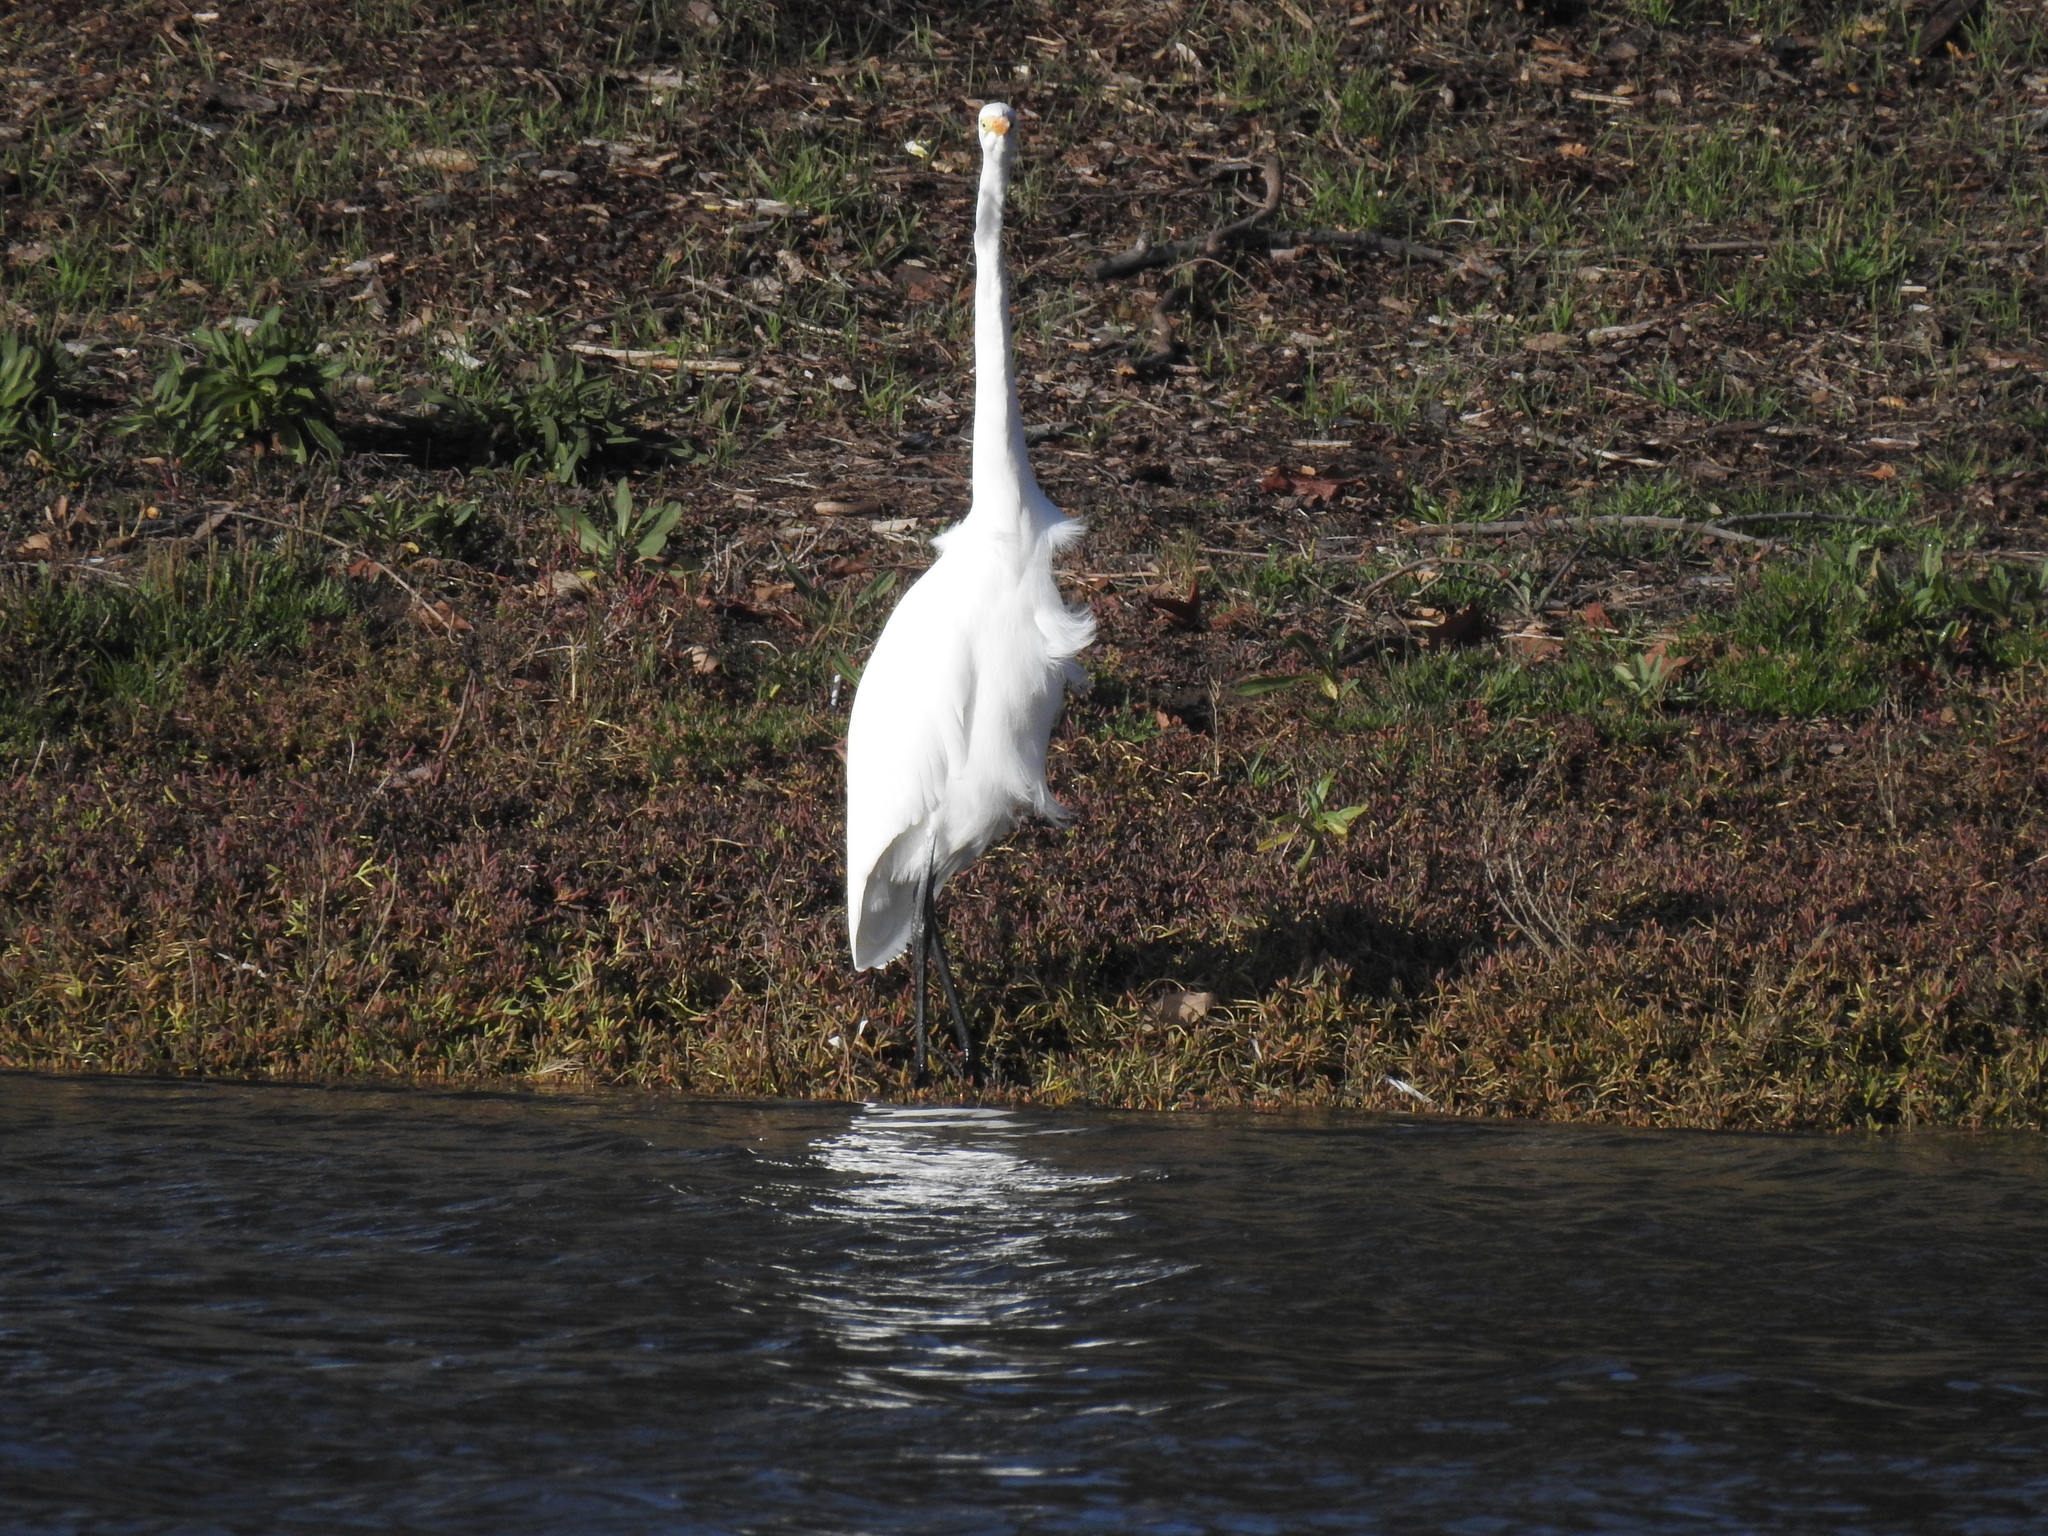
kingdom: Animalia
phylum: Chordata
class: Aves
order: Pelecaniformes
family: Ardeidae
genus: Ardea
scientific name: Ardea alba
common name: Great egret
